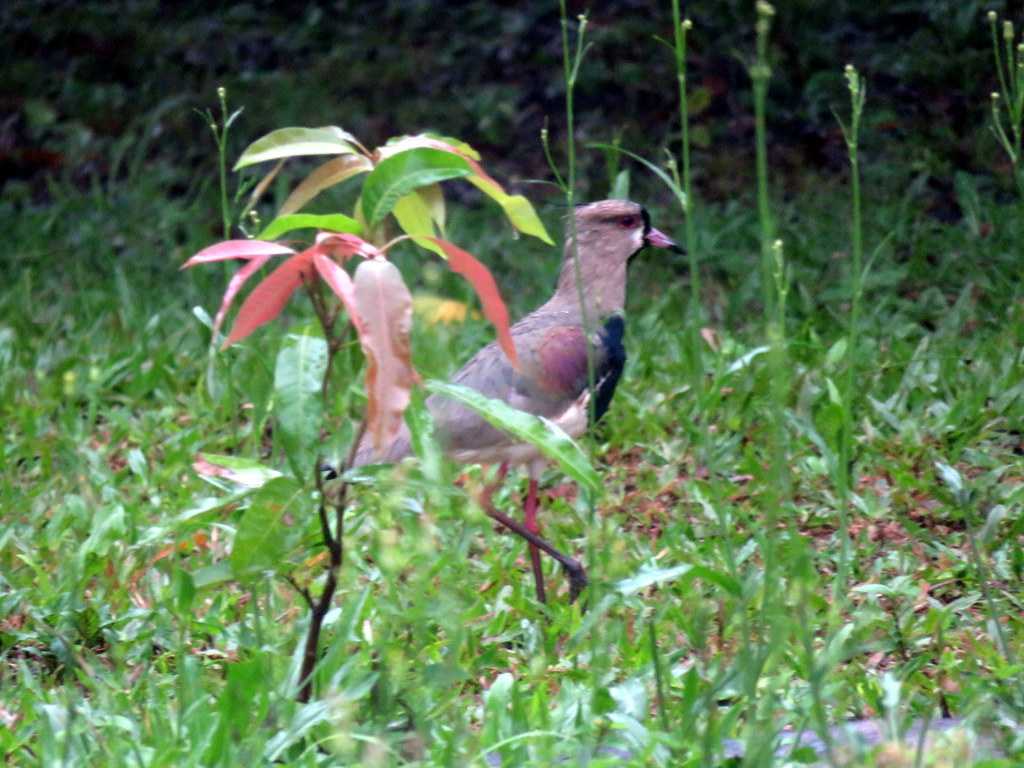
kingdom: Animalia
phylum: Chordata
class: Aves
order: Charadriiformes
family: Charadriidae
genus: Vanellus
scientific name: Vanellus chilensis
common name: Southern lapwing
